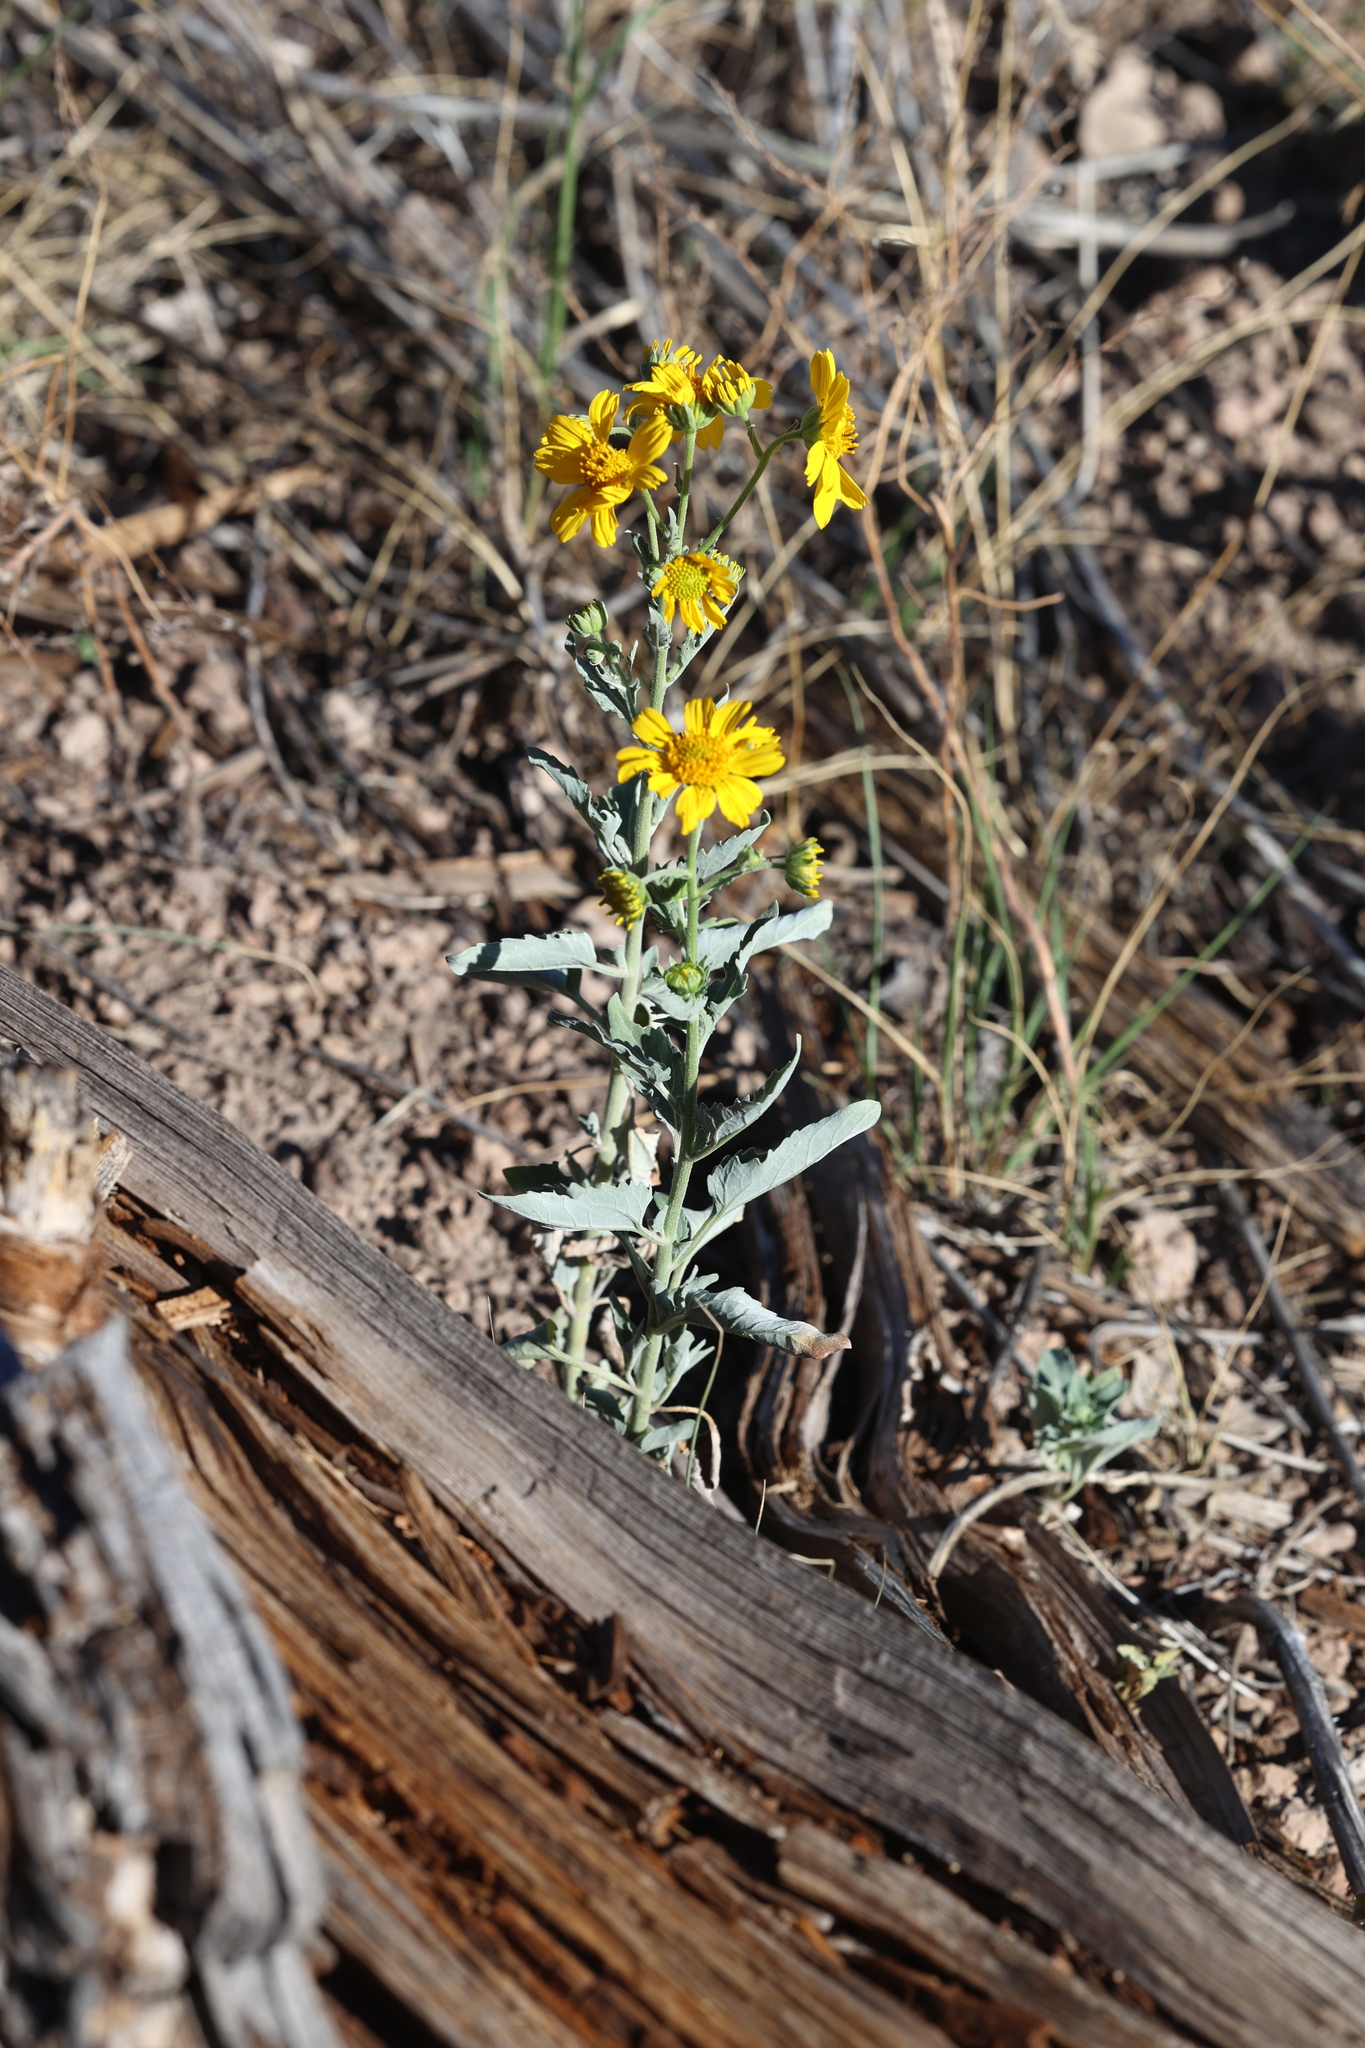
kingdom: Plantae
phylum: Tracheophyta
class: Magnoliopsida
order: Asterales
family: Asteraceae
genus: Verbesina
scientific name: Verbesina encelioides
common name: Golden crownbeard
